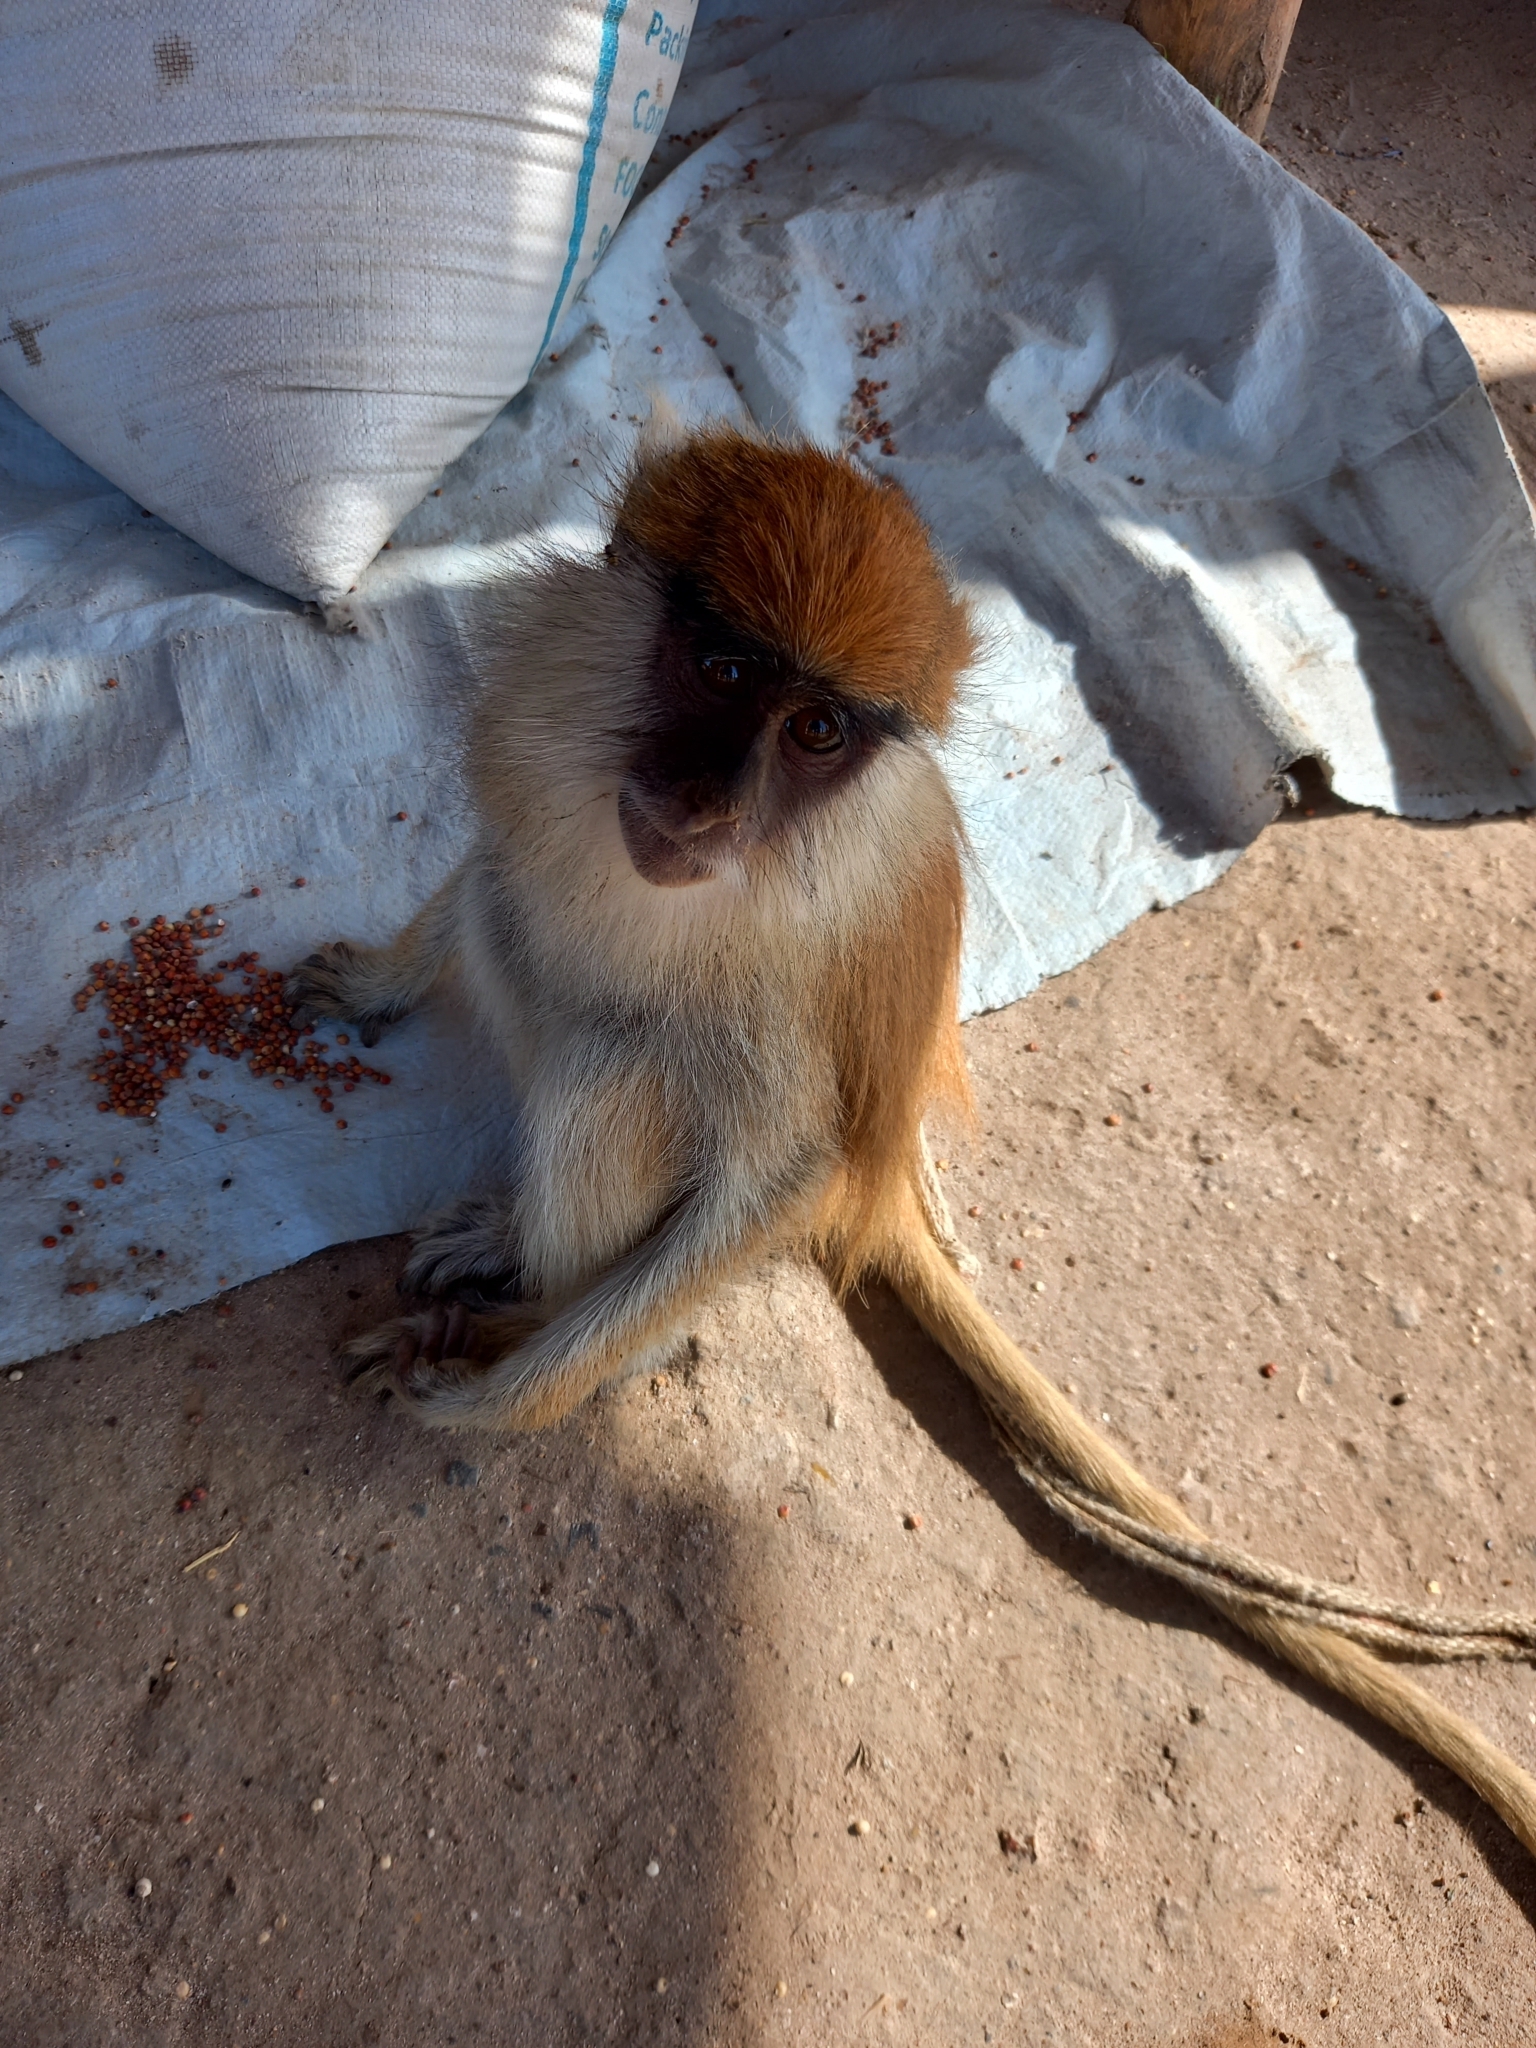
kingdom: Animalia
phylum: Chordata
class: Mammalia
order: Primates
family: Cercopithecidae
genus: Erythrocebus
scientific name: Erythrocebus patas
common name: Patas monkey
